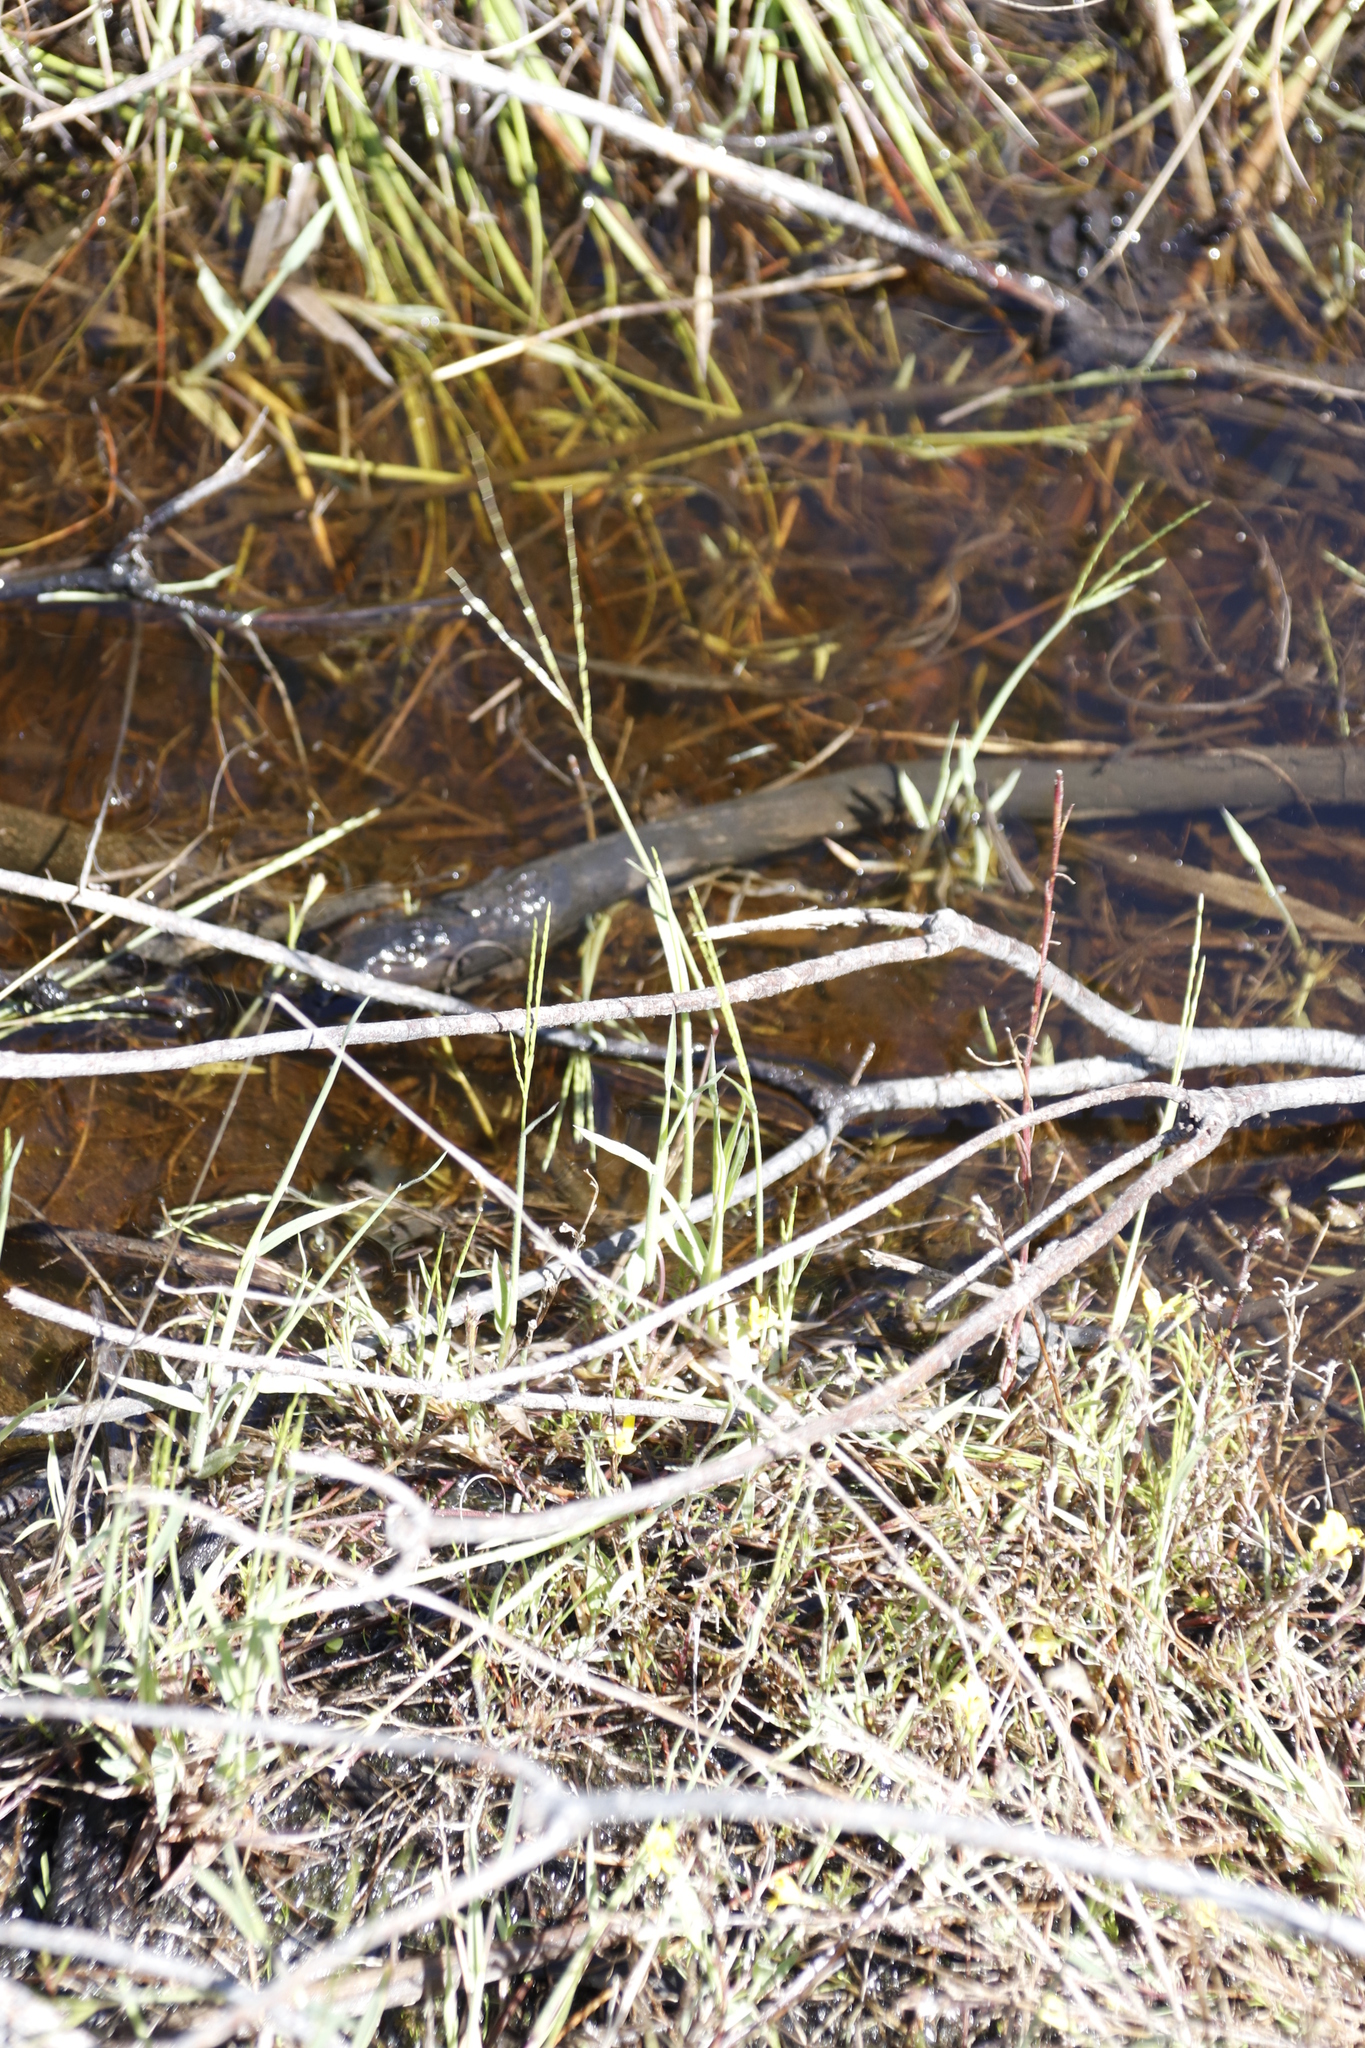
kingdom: Plantae
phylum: Tracheophyta
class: Liliopsida
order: Poales
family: Poaceae
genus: Cynodon
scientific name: Cynodon dactylon
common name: Bermuda grass
